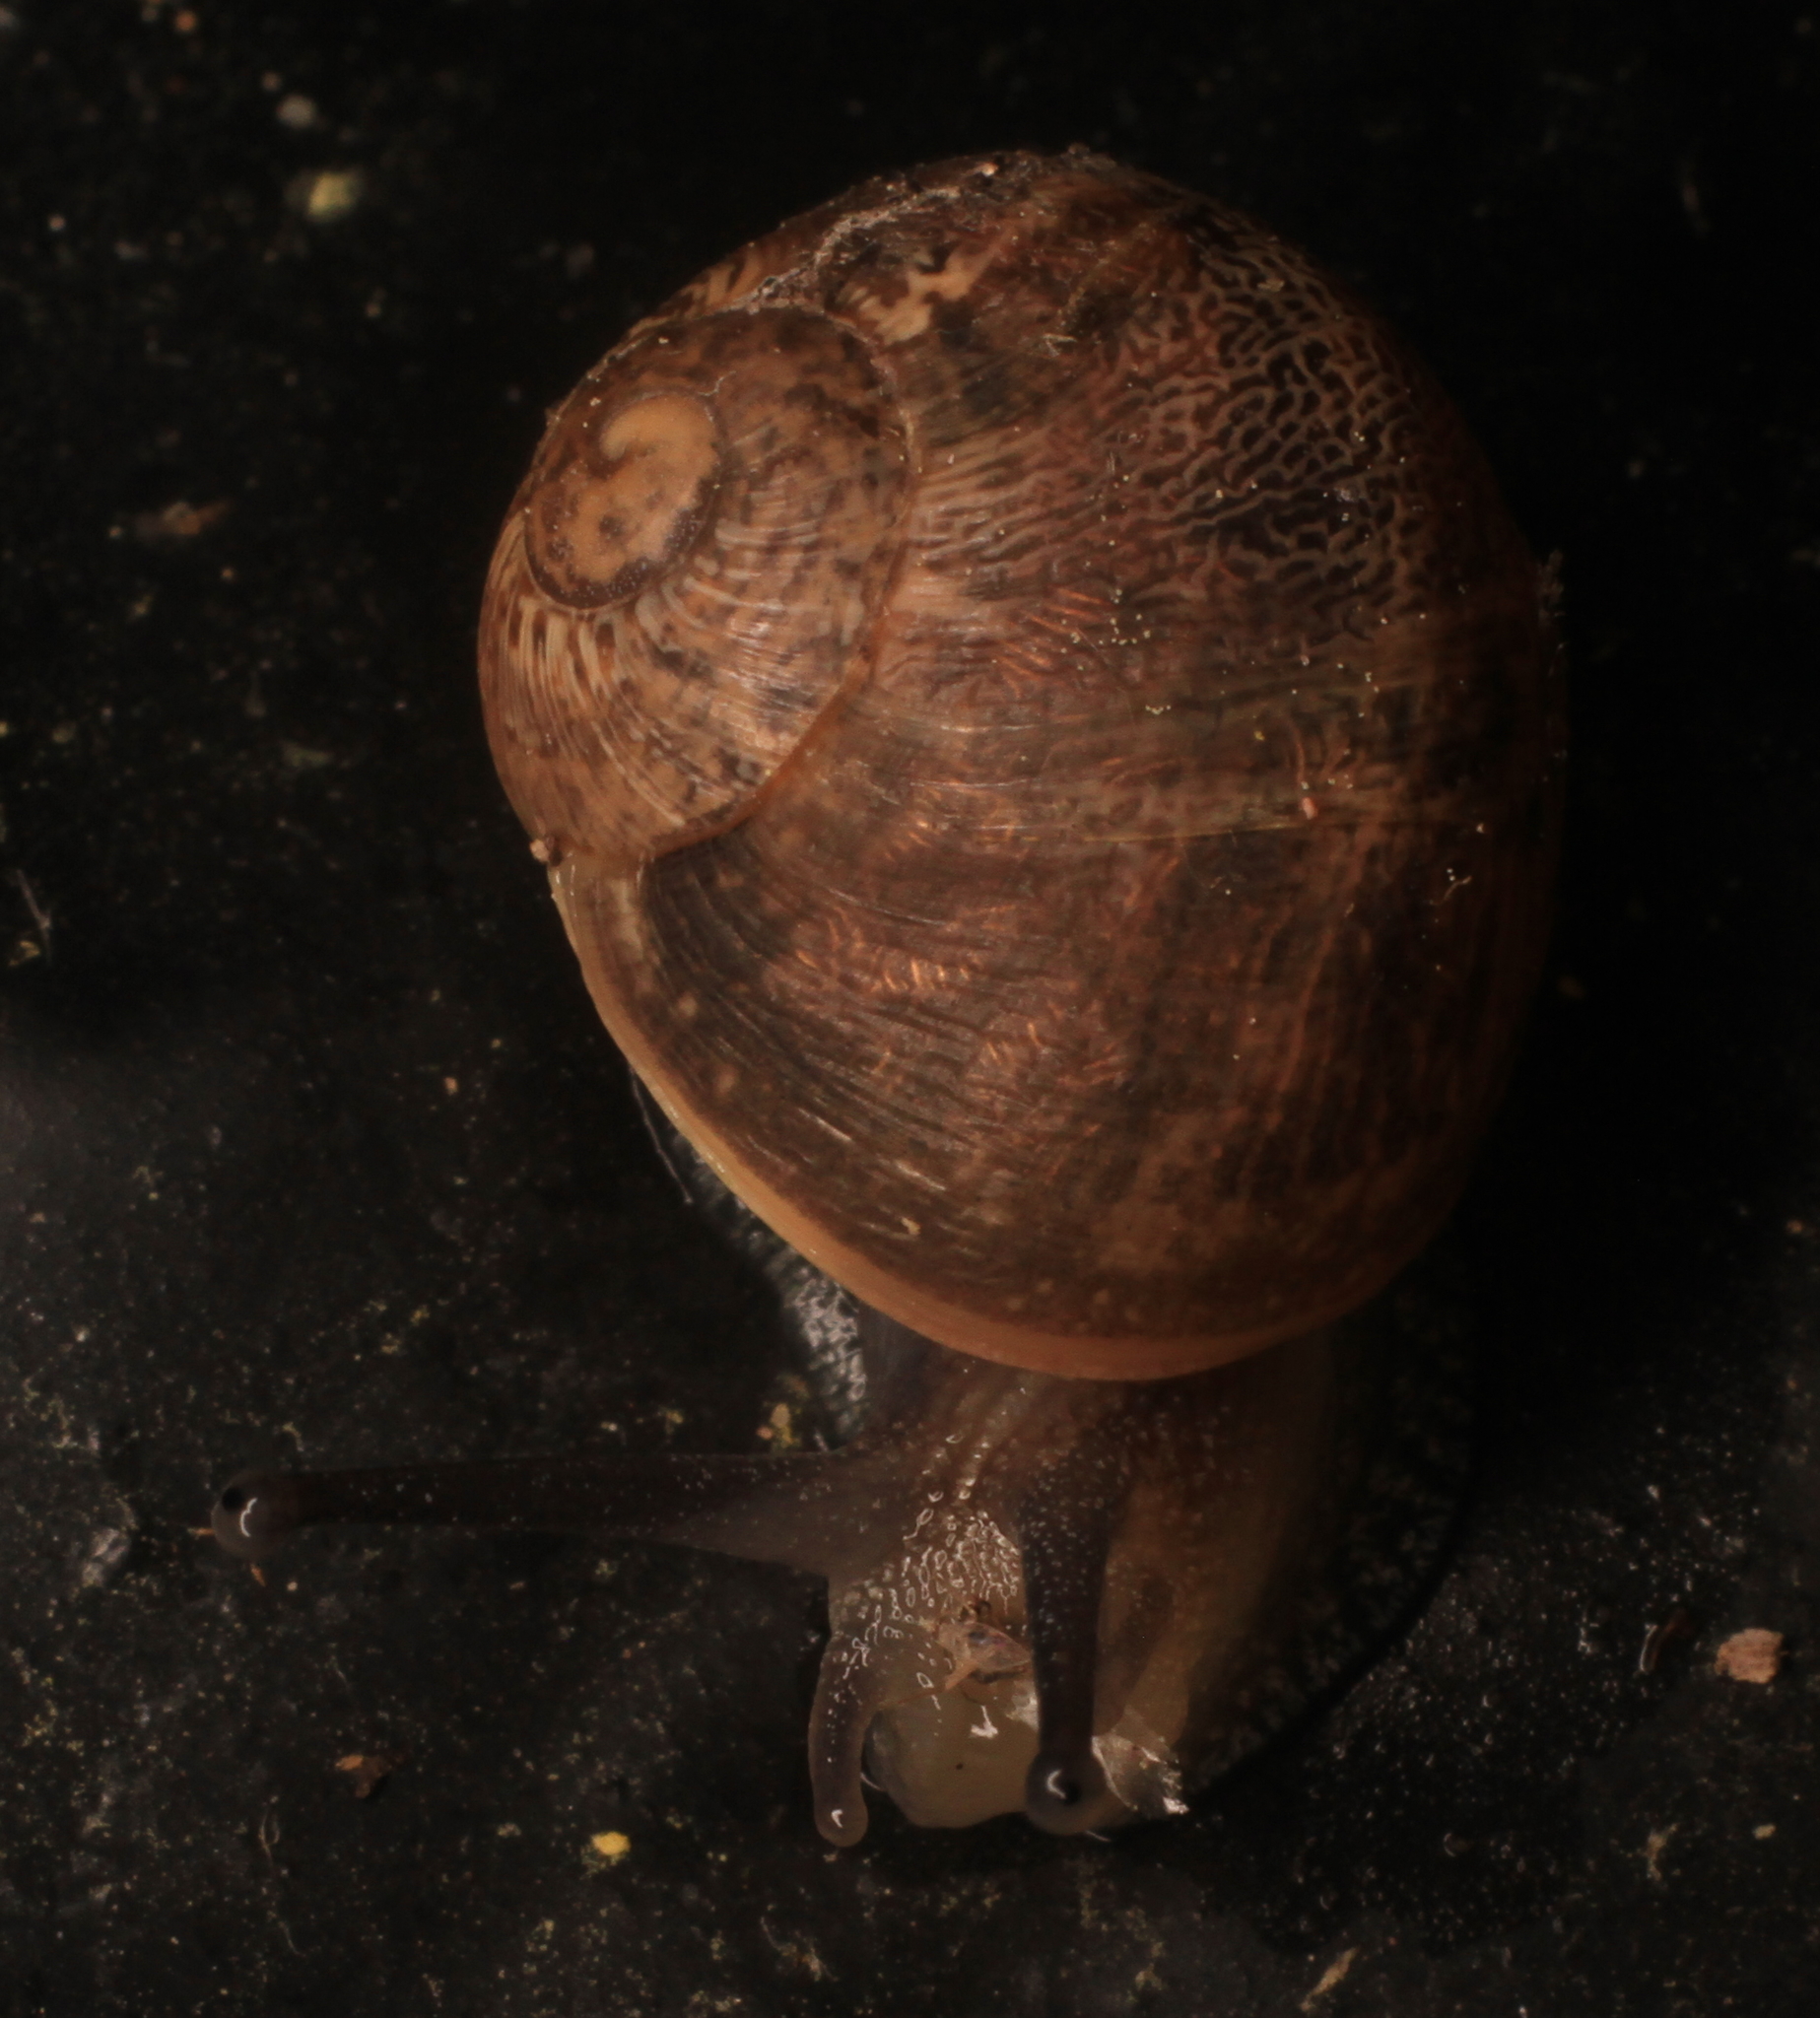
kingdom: Animalia
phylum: Mollusca
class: Gastropoda
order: Stylommatophora
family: Helicidae
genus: Cornu
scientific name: Cornu aspersum
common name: Brown garden snail
